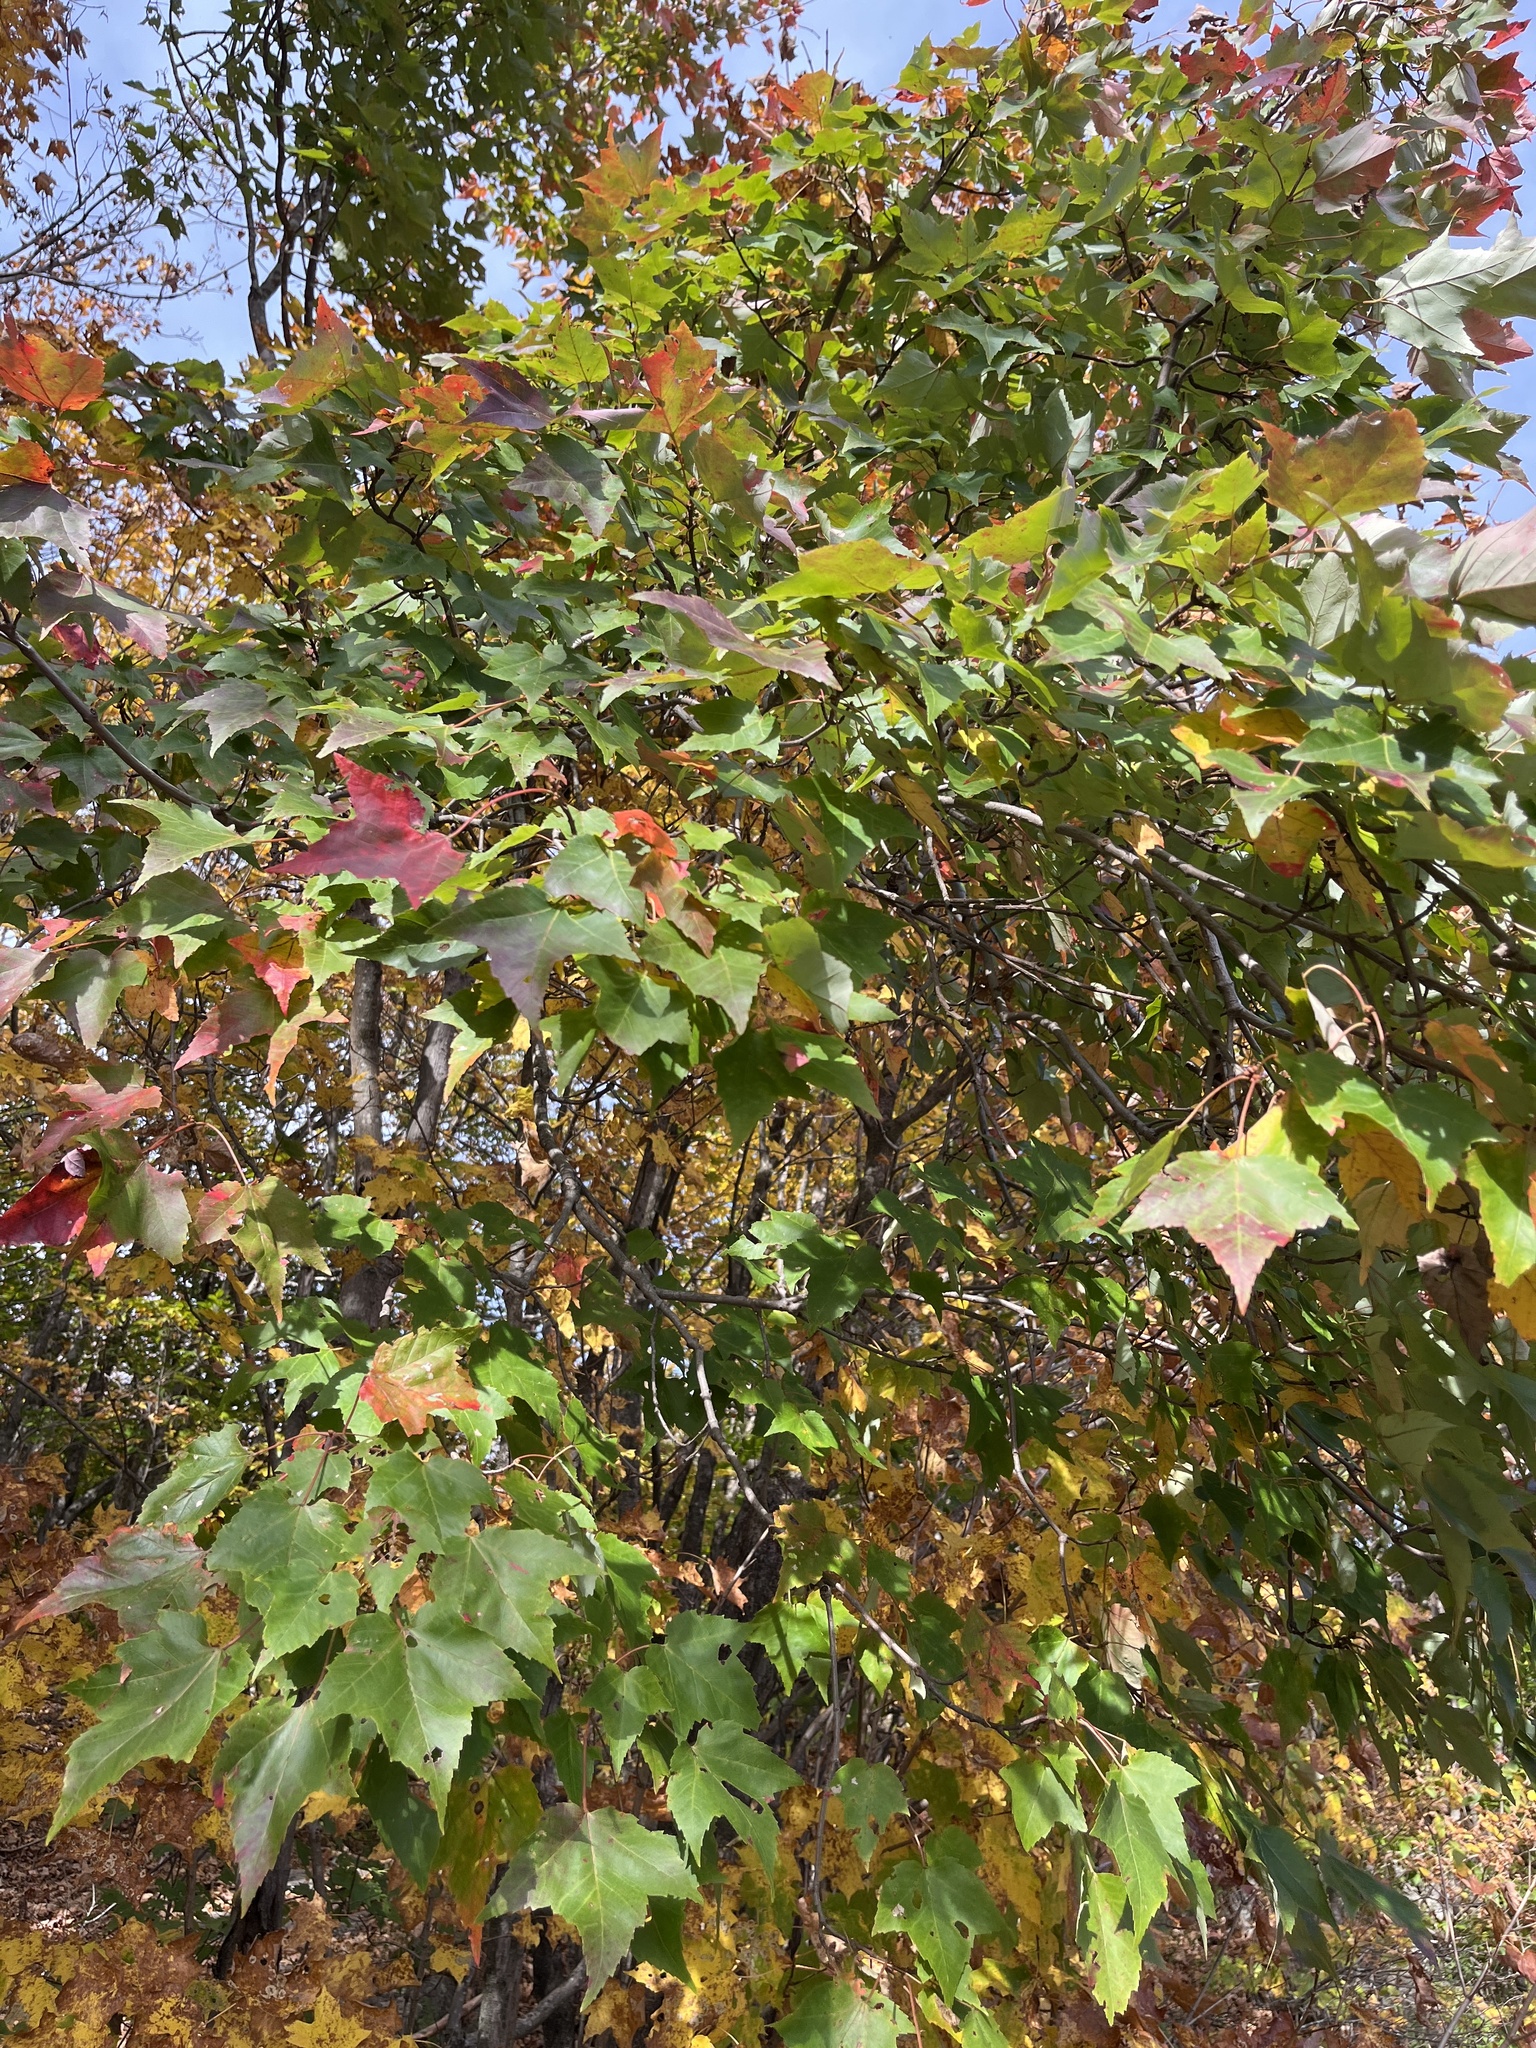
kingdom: Plantae
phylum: Tracheophyta
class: Magnoliopsida
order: Sapindales
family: Sapindaceae
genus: Acer
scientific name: Acer rubrum
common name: Red maple
